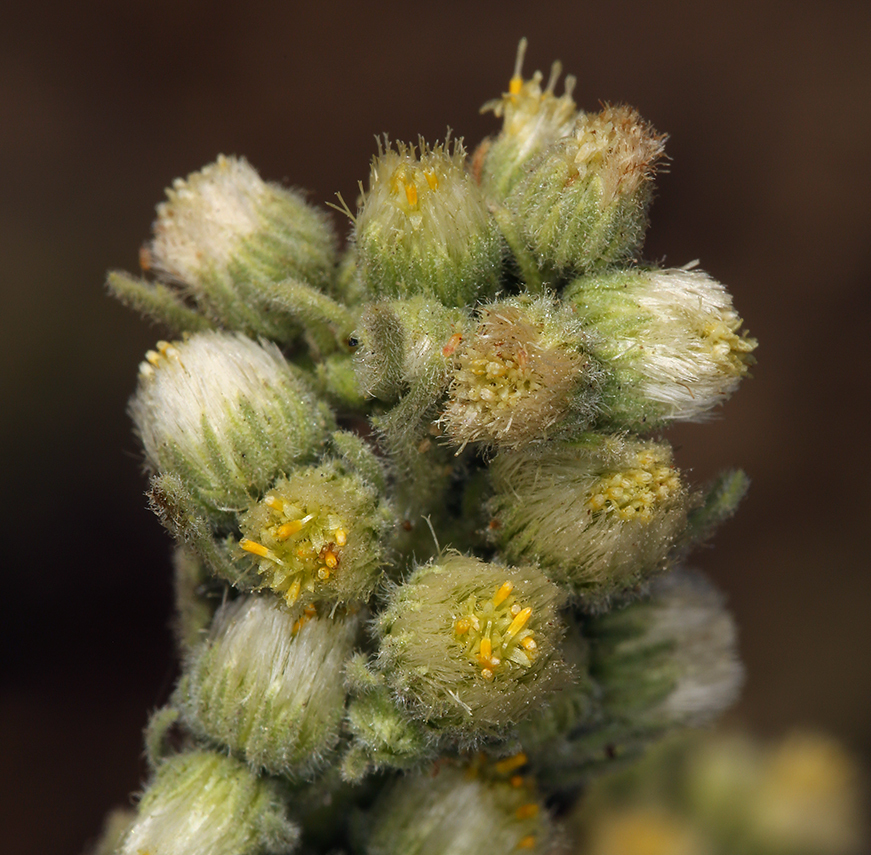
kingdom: Plantae
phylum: Tracheophyta
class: Magnoliopsida
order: Asterales
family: Asteraceae
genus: Laennecia
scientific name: Laennecia coulteri
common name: Coulter's woolwort
